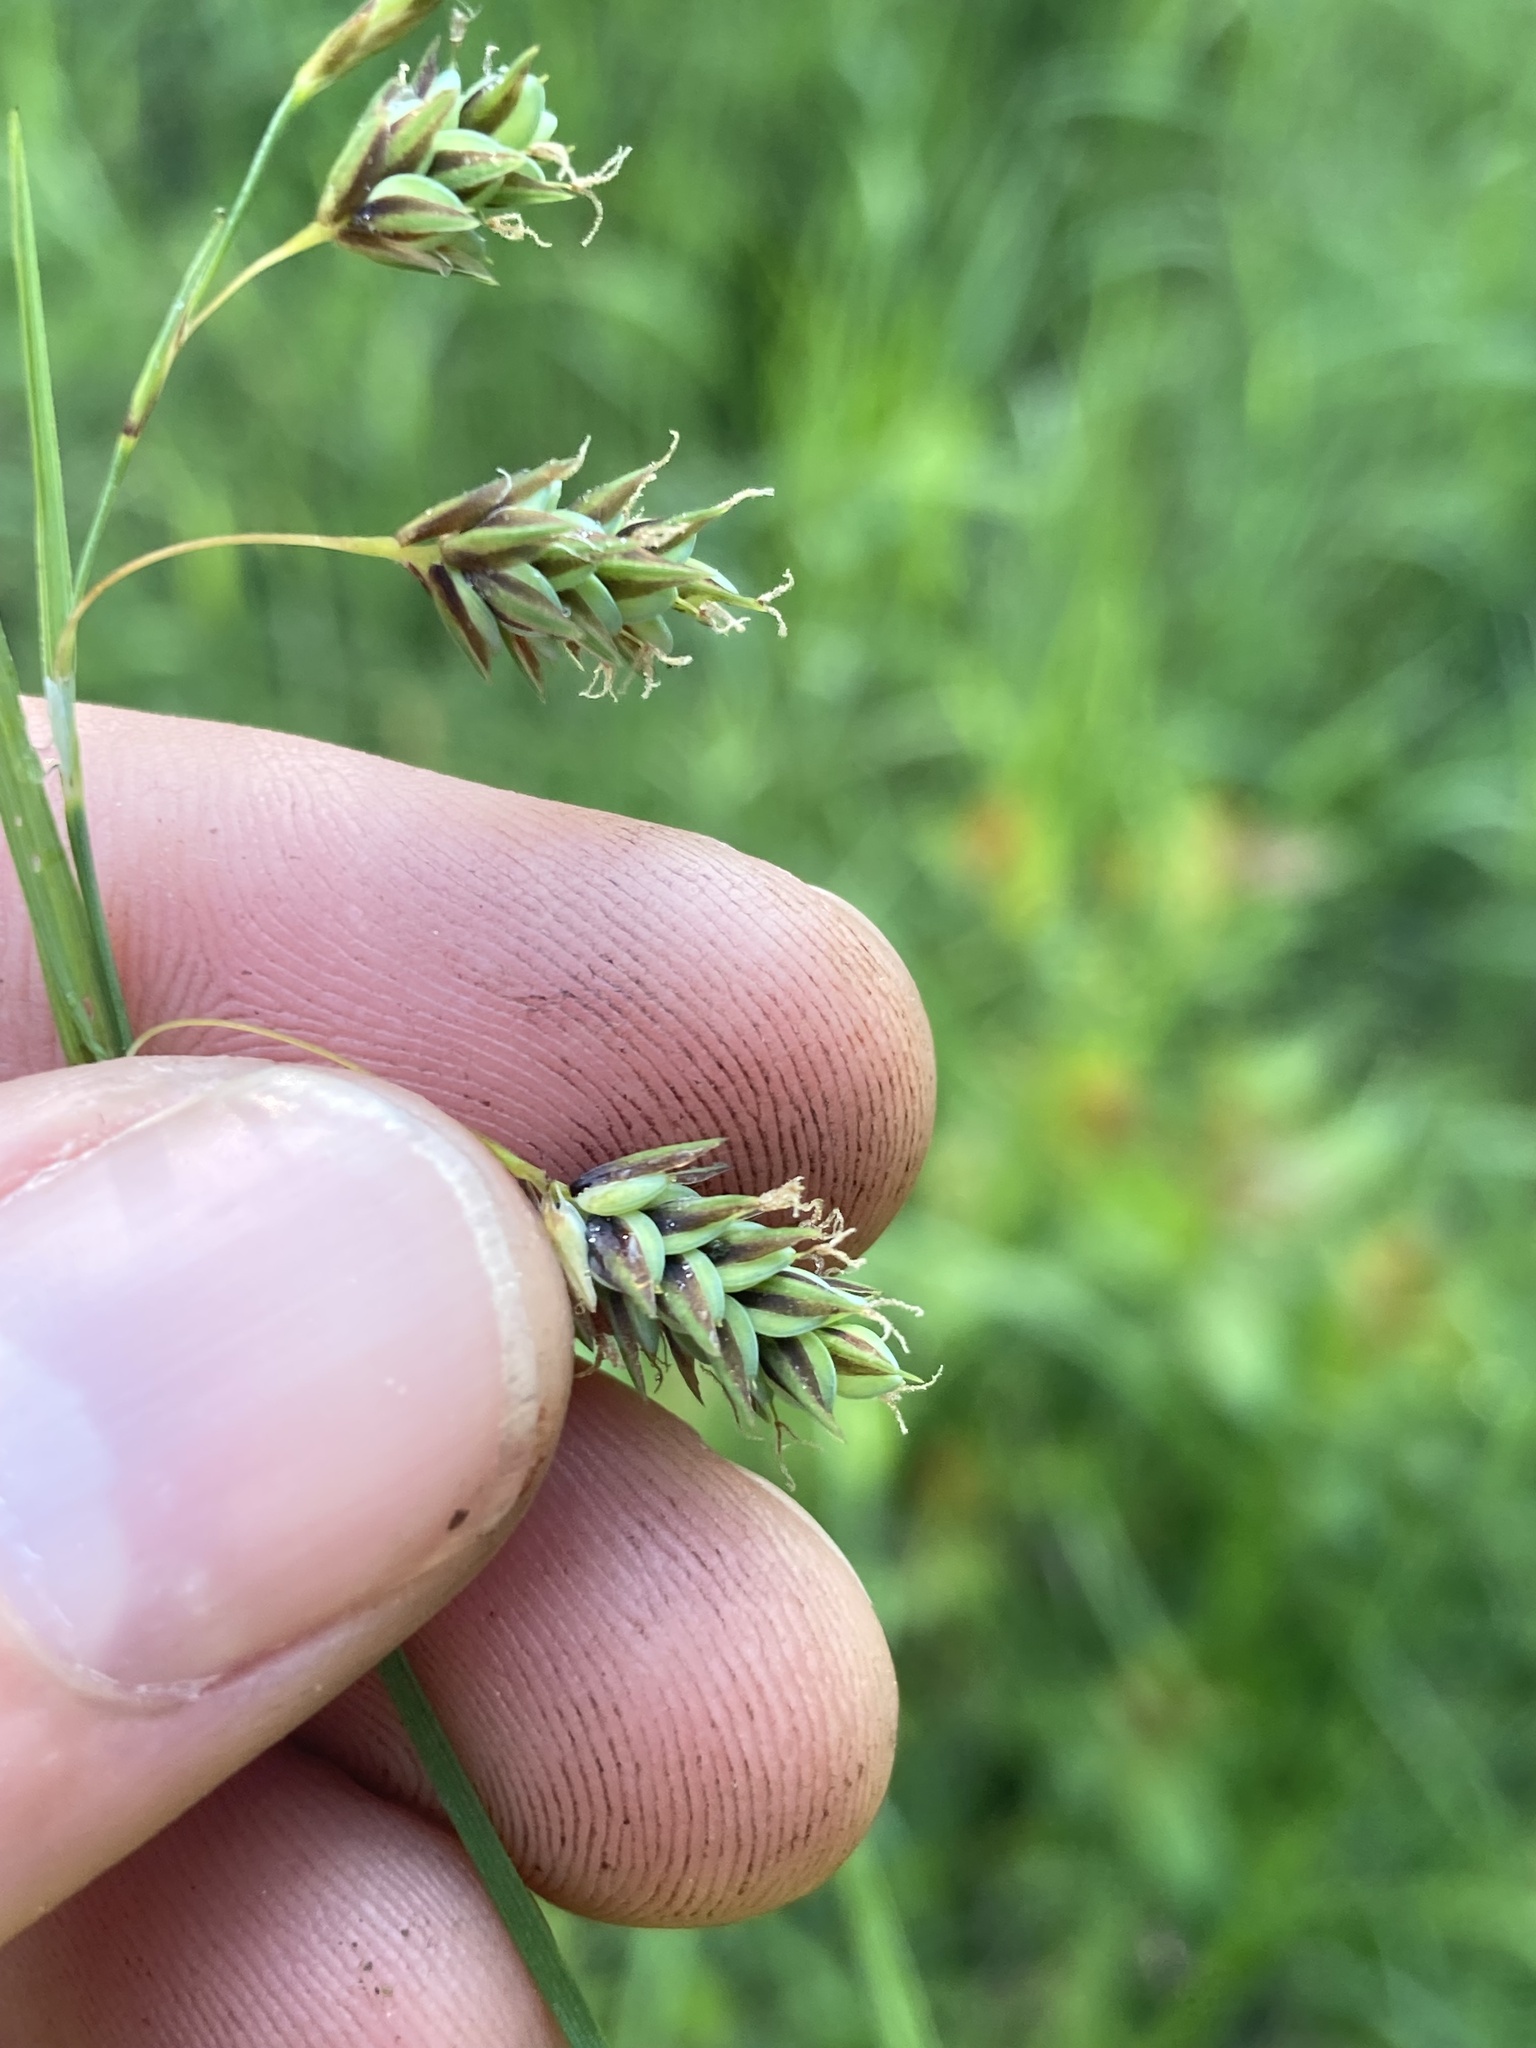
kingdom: Plantae
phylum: Tracheophyta
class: Liliopsida
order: Poales
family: Cyperaceae
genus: Carex
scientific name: Carex magellanica
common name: Bog sedge
